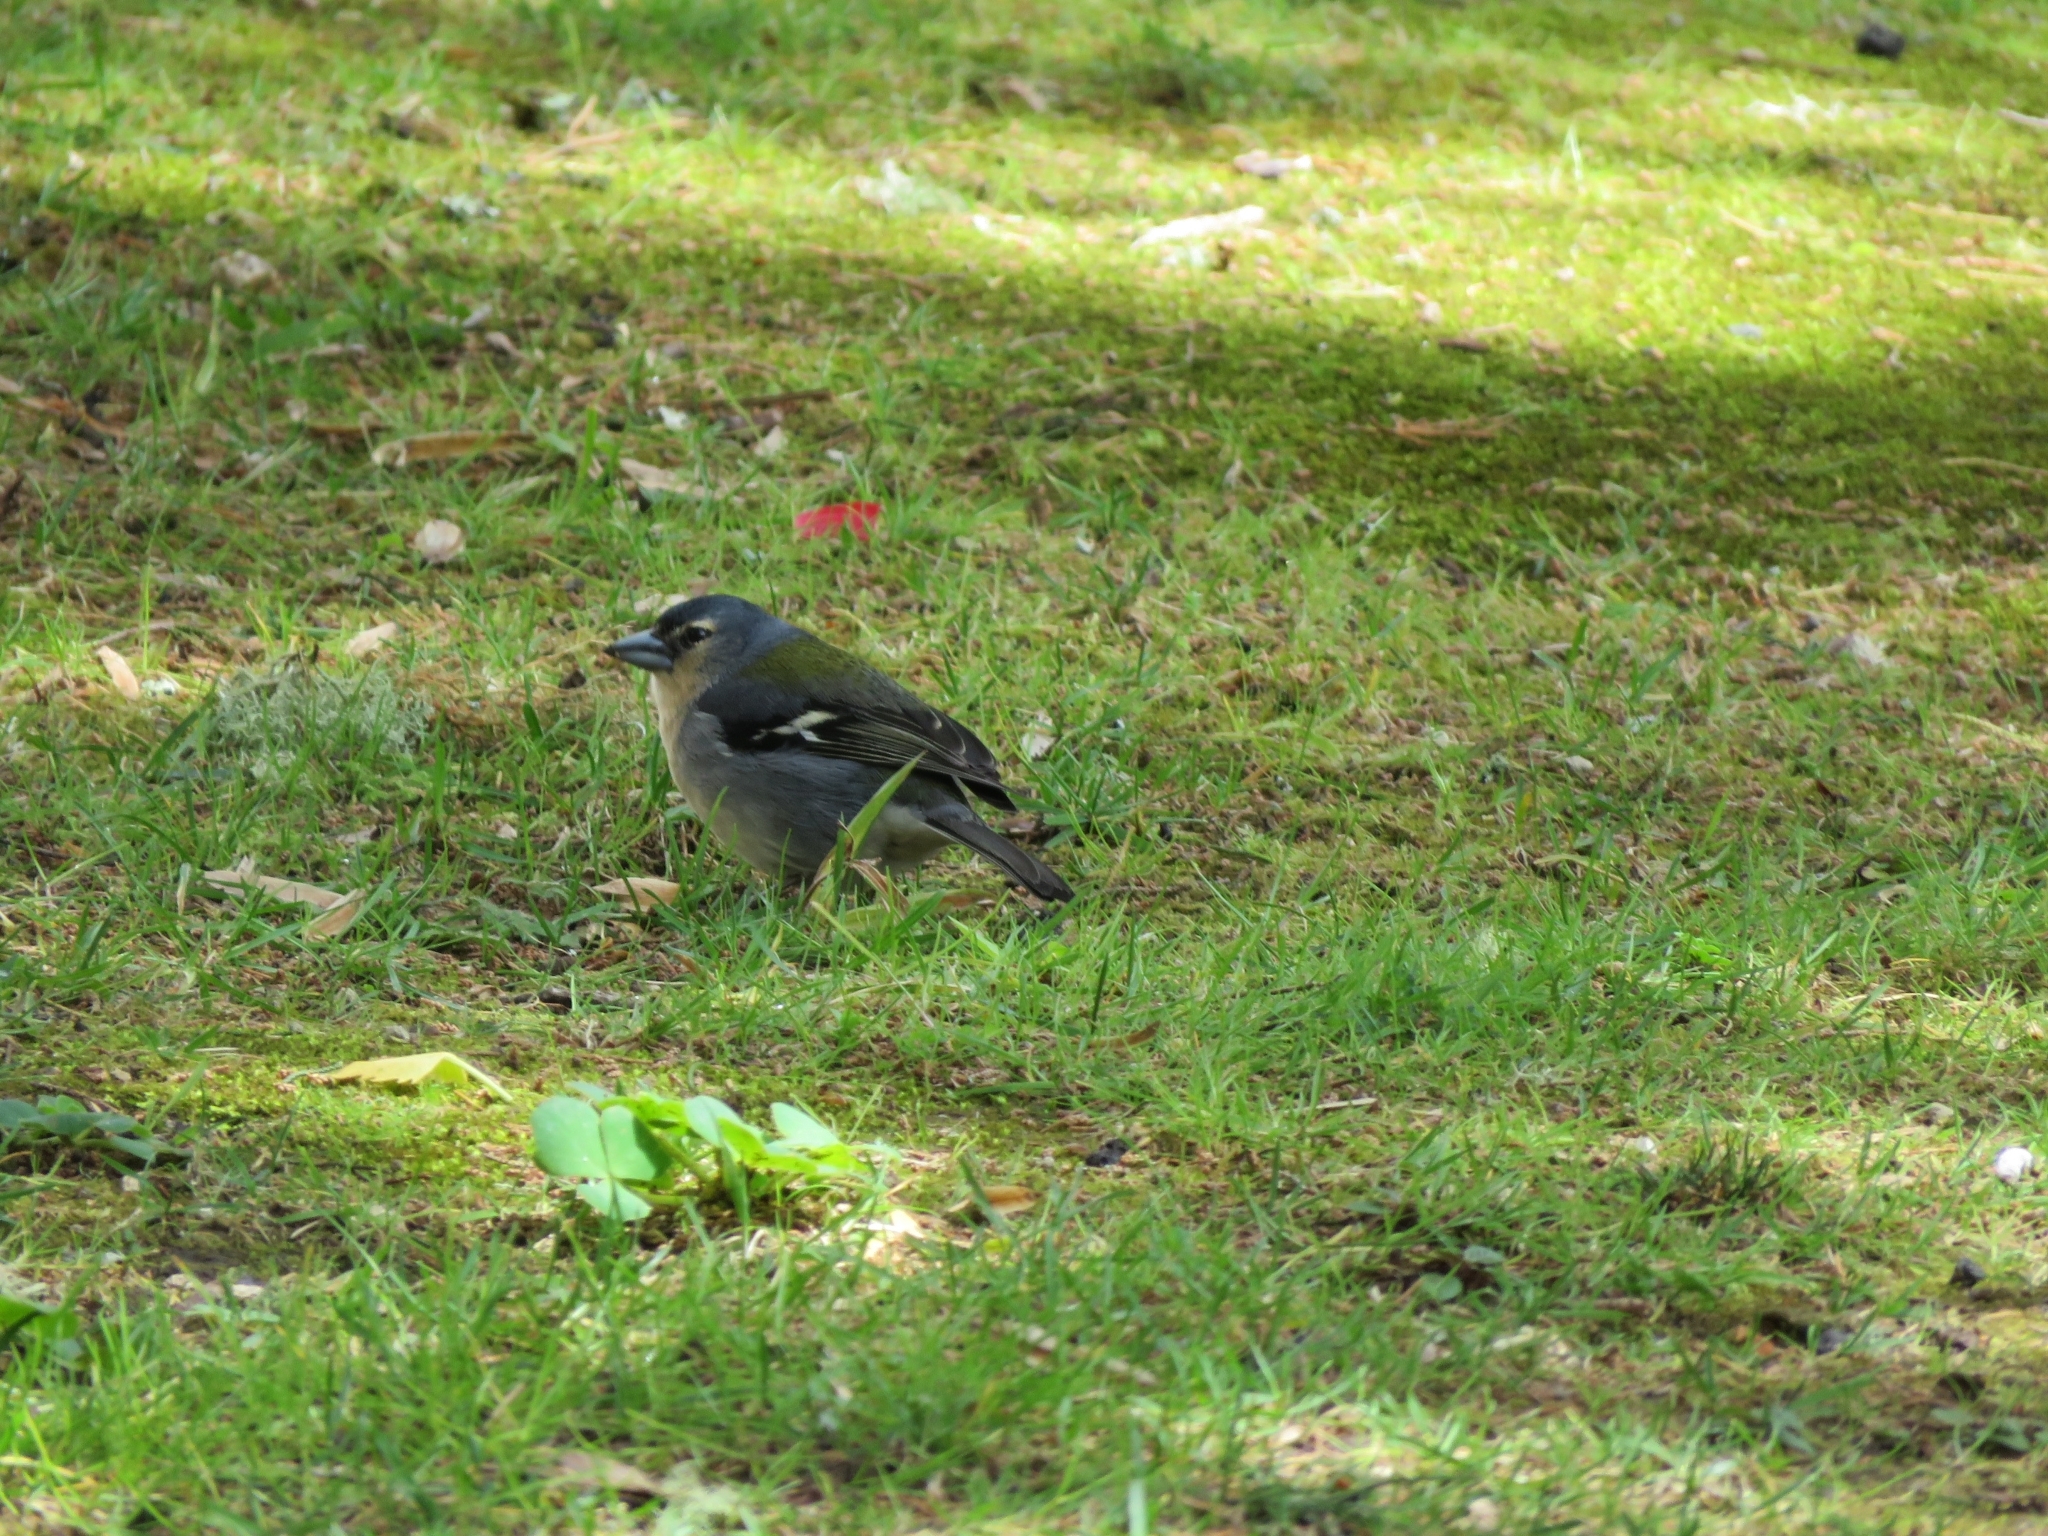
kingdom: Animalia
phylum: Chordata
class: Aves
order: Passeriformes
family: Fringillidae
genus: Fringilla
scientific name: Fringilla moreletti
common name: Azores chaffinch
